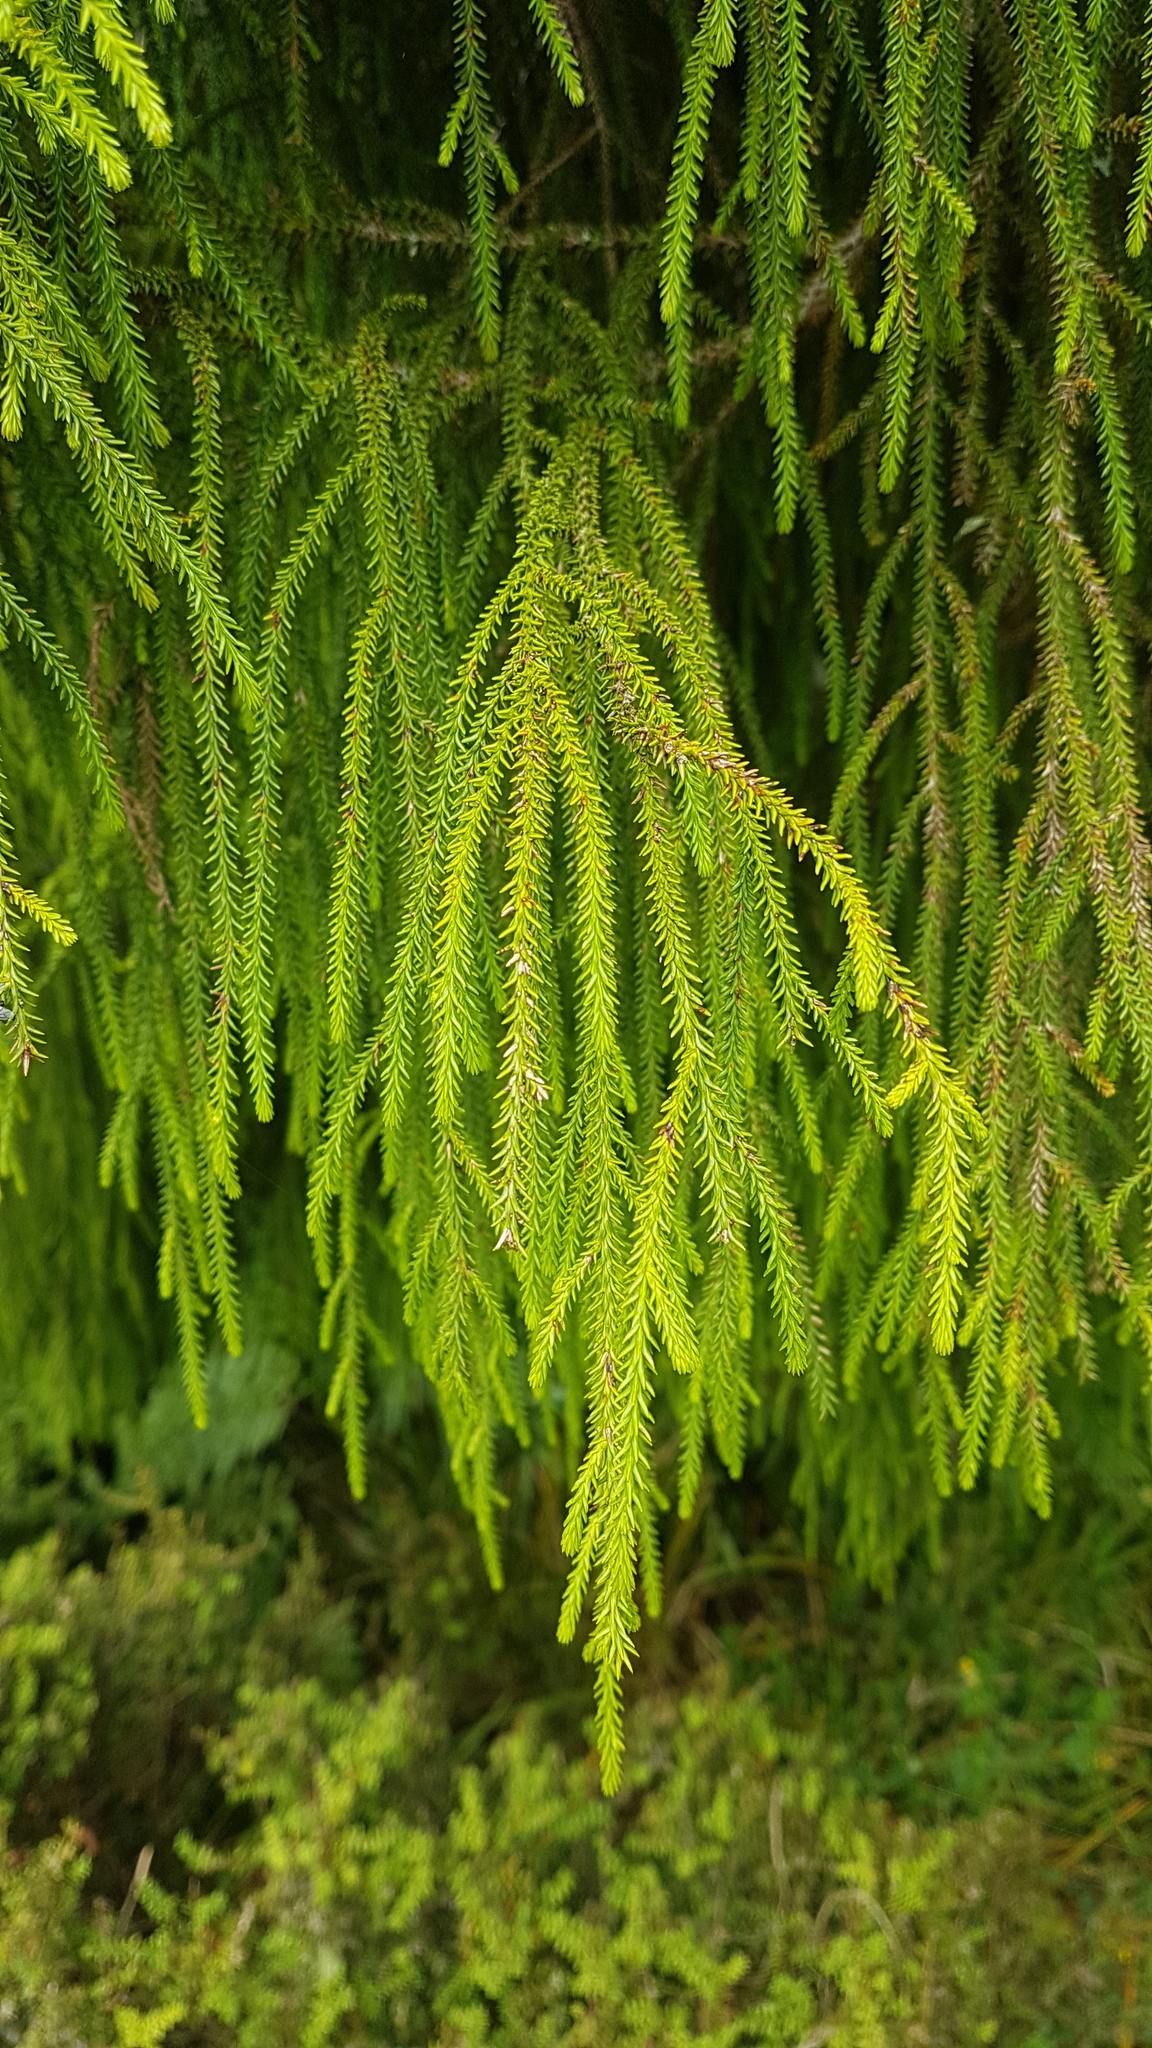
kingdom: Plantae
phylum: Tracheophyta
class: Pinopsida
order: Pinales
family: Podocarpaceae
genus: Dacrydium
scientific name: Dacrydium cupressinum
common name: Red pine
